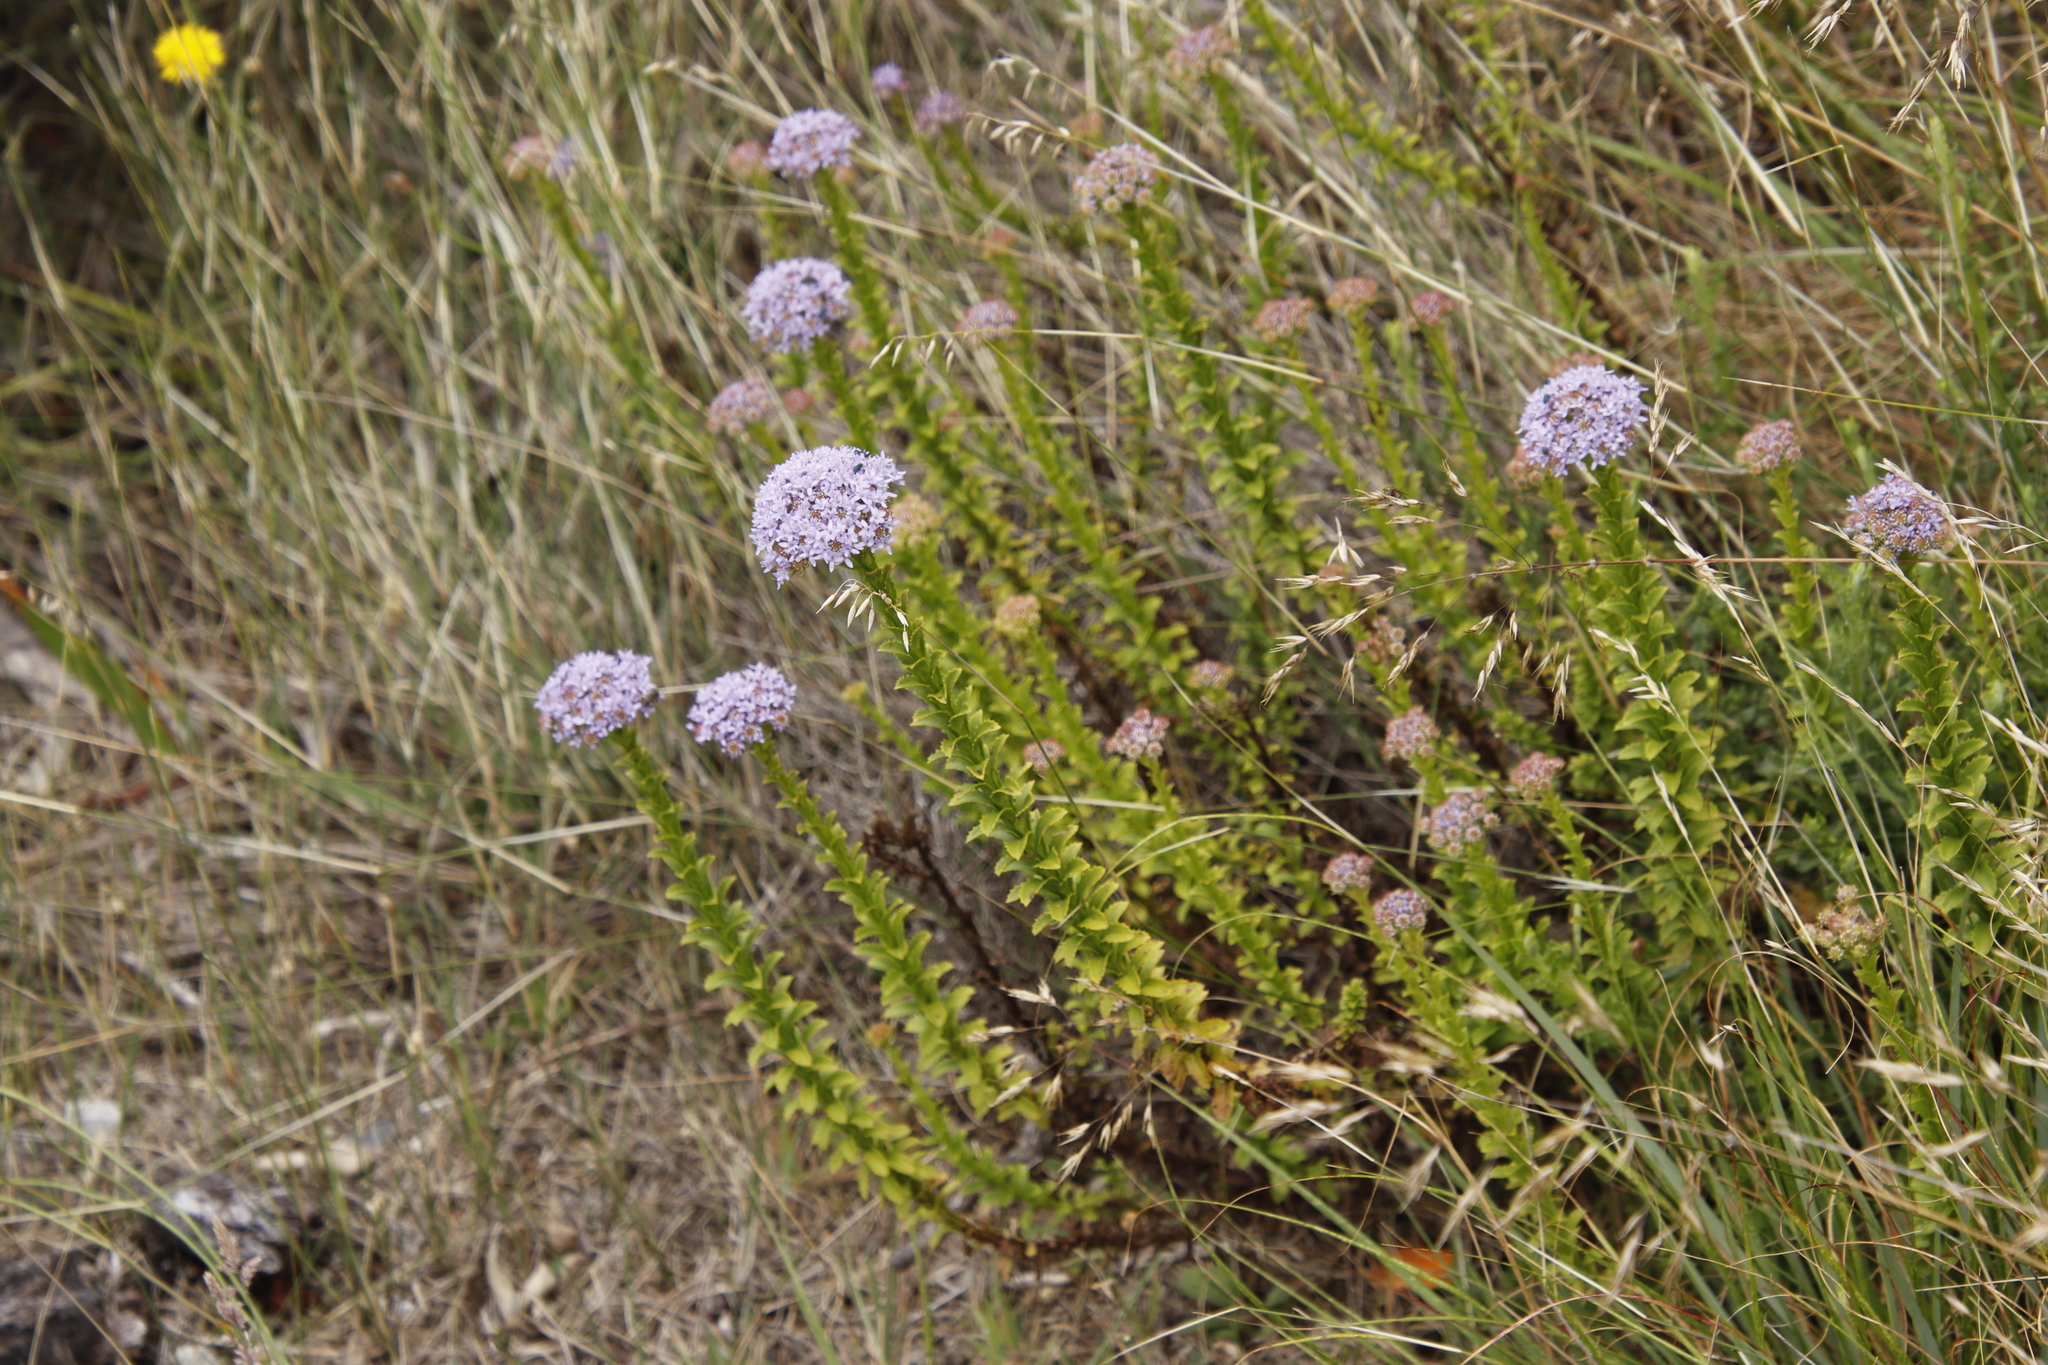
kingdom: Plantae
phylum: Tracheophyta
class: Magnoliopsida
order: Lamiales
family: Scrophulariaceae
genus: Pseudoselago
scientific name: Pseudoselago serrata
